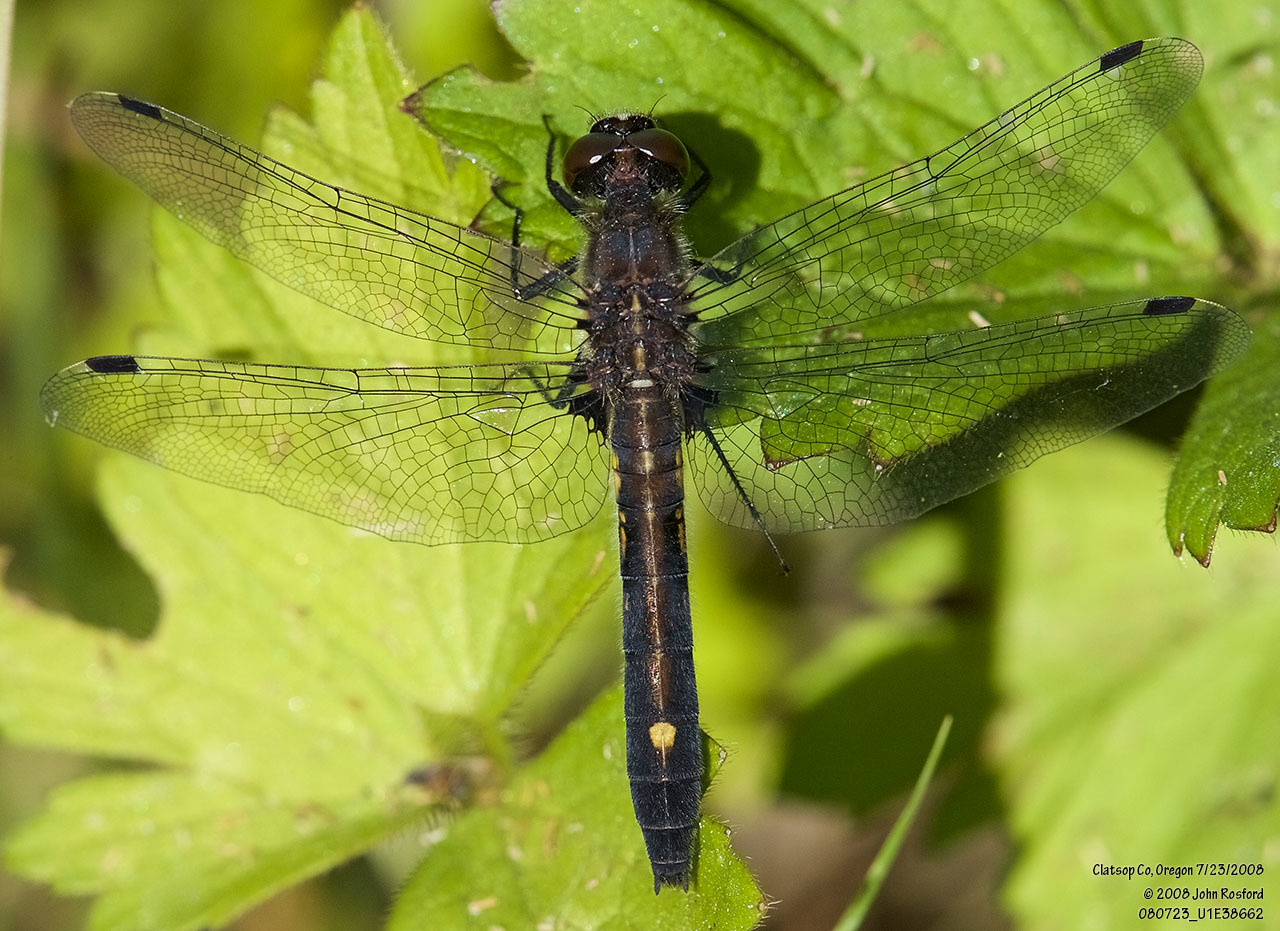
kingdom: Animalia
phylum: Arthropoda
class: Insecta
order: Odonata
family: Libellulidae
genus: Leucorrhinia
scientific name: Leucorrhinia intacta
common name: Dot-tailed whiteface
